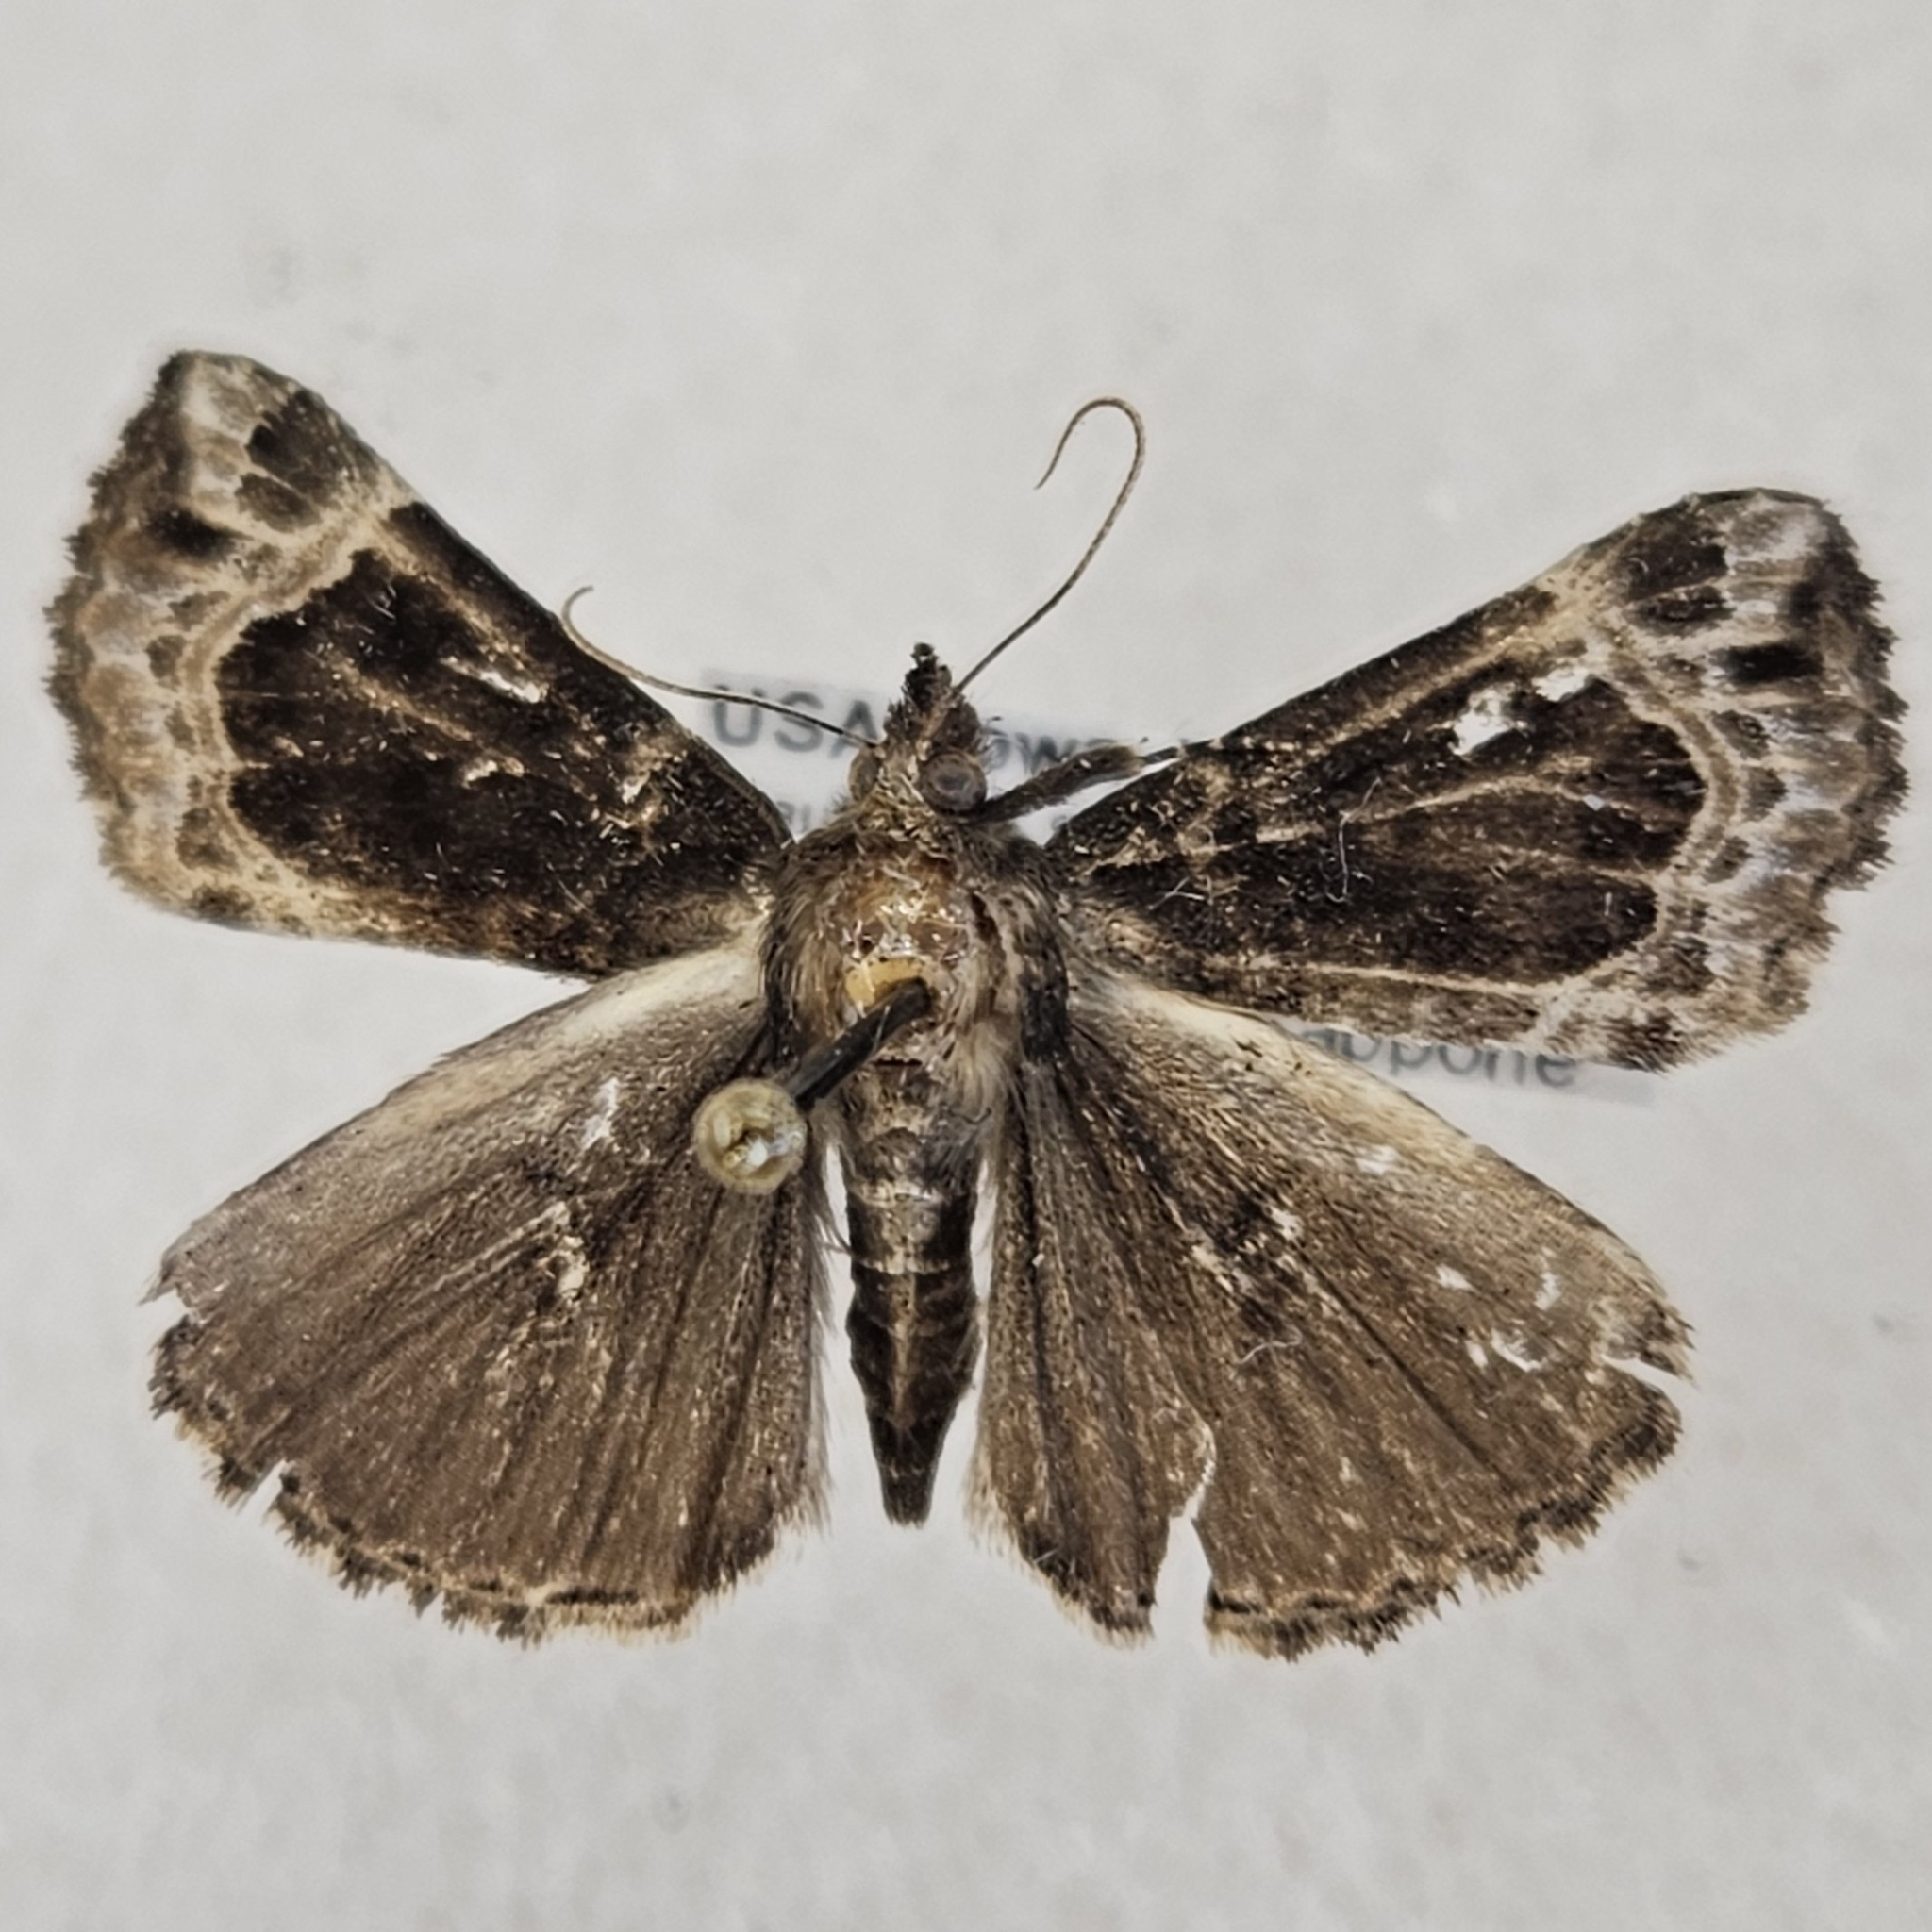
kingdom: Animalia
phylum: Arthropoda
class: Insecta
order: Lepidoptera
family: Erebidae
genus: Hypena
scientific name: Hypena abalienalis
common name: White-lined snout
